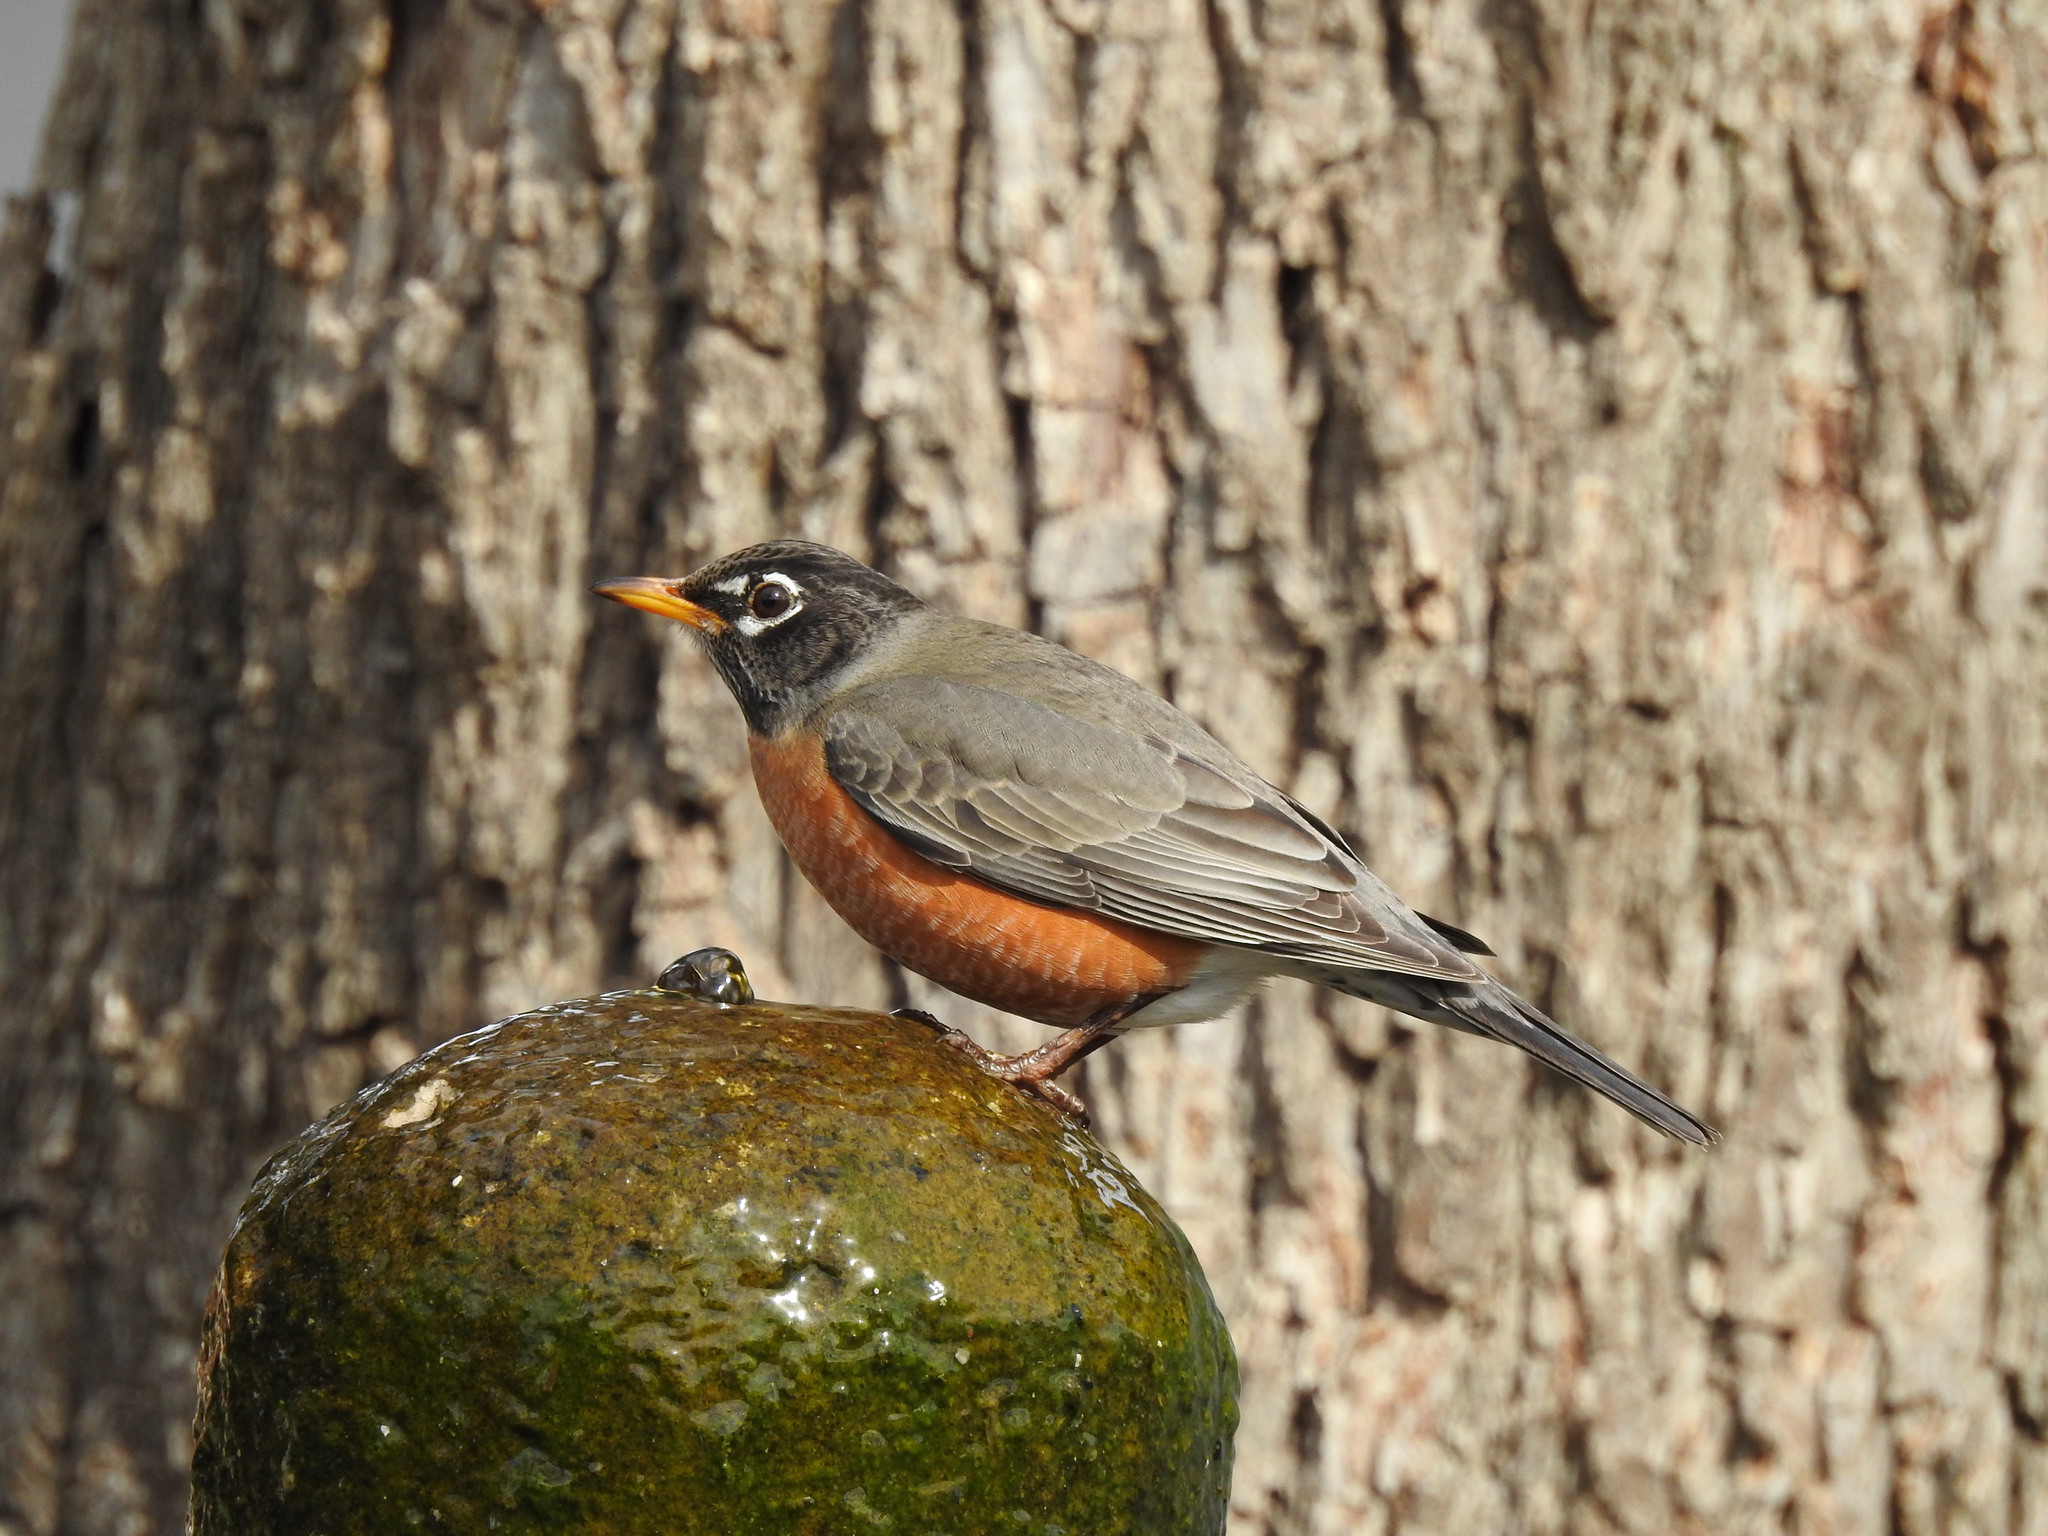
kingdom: Animalia
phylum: Chordata
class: Aves
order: Passeriformes
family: Turdidae
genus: Turdus
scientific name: Turdus migratorius
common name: American robin
